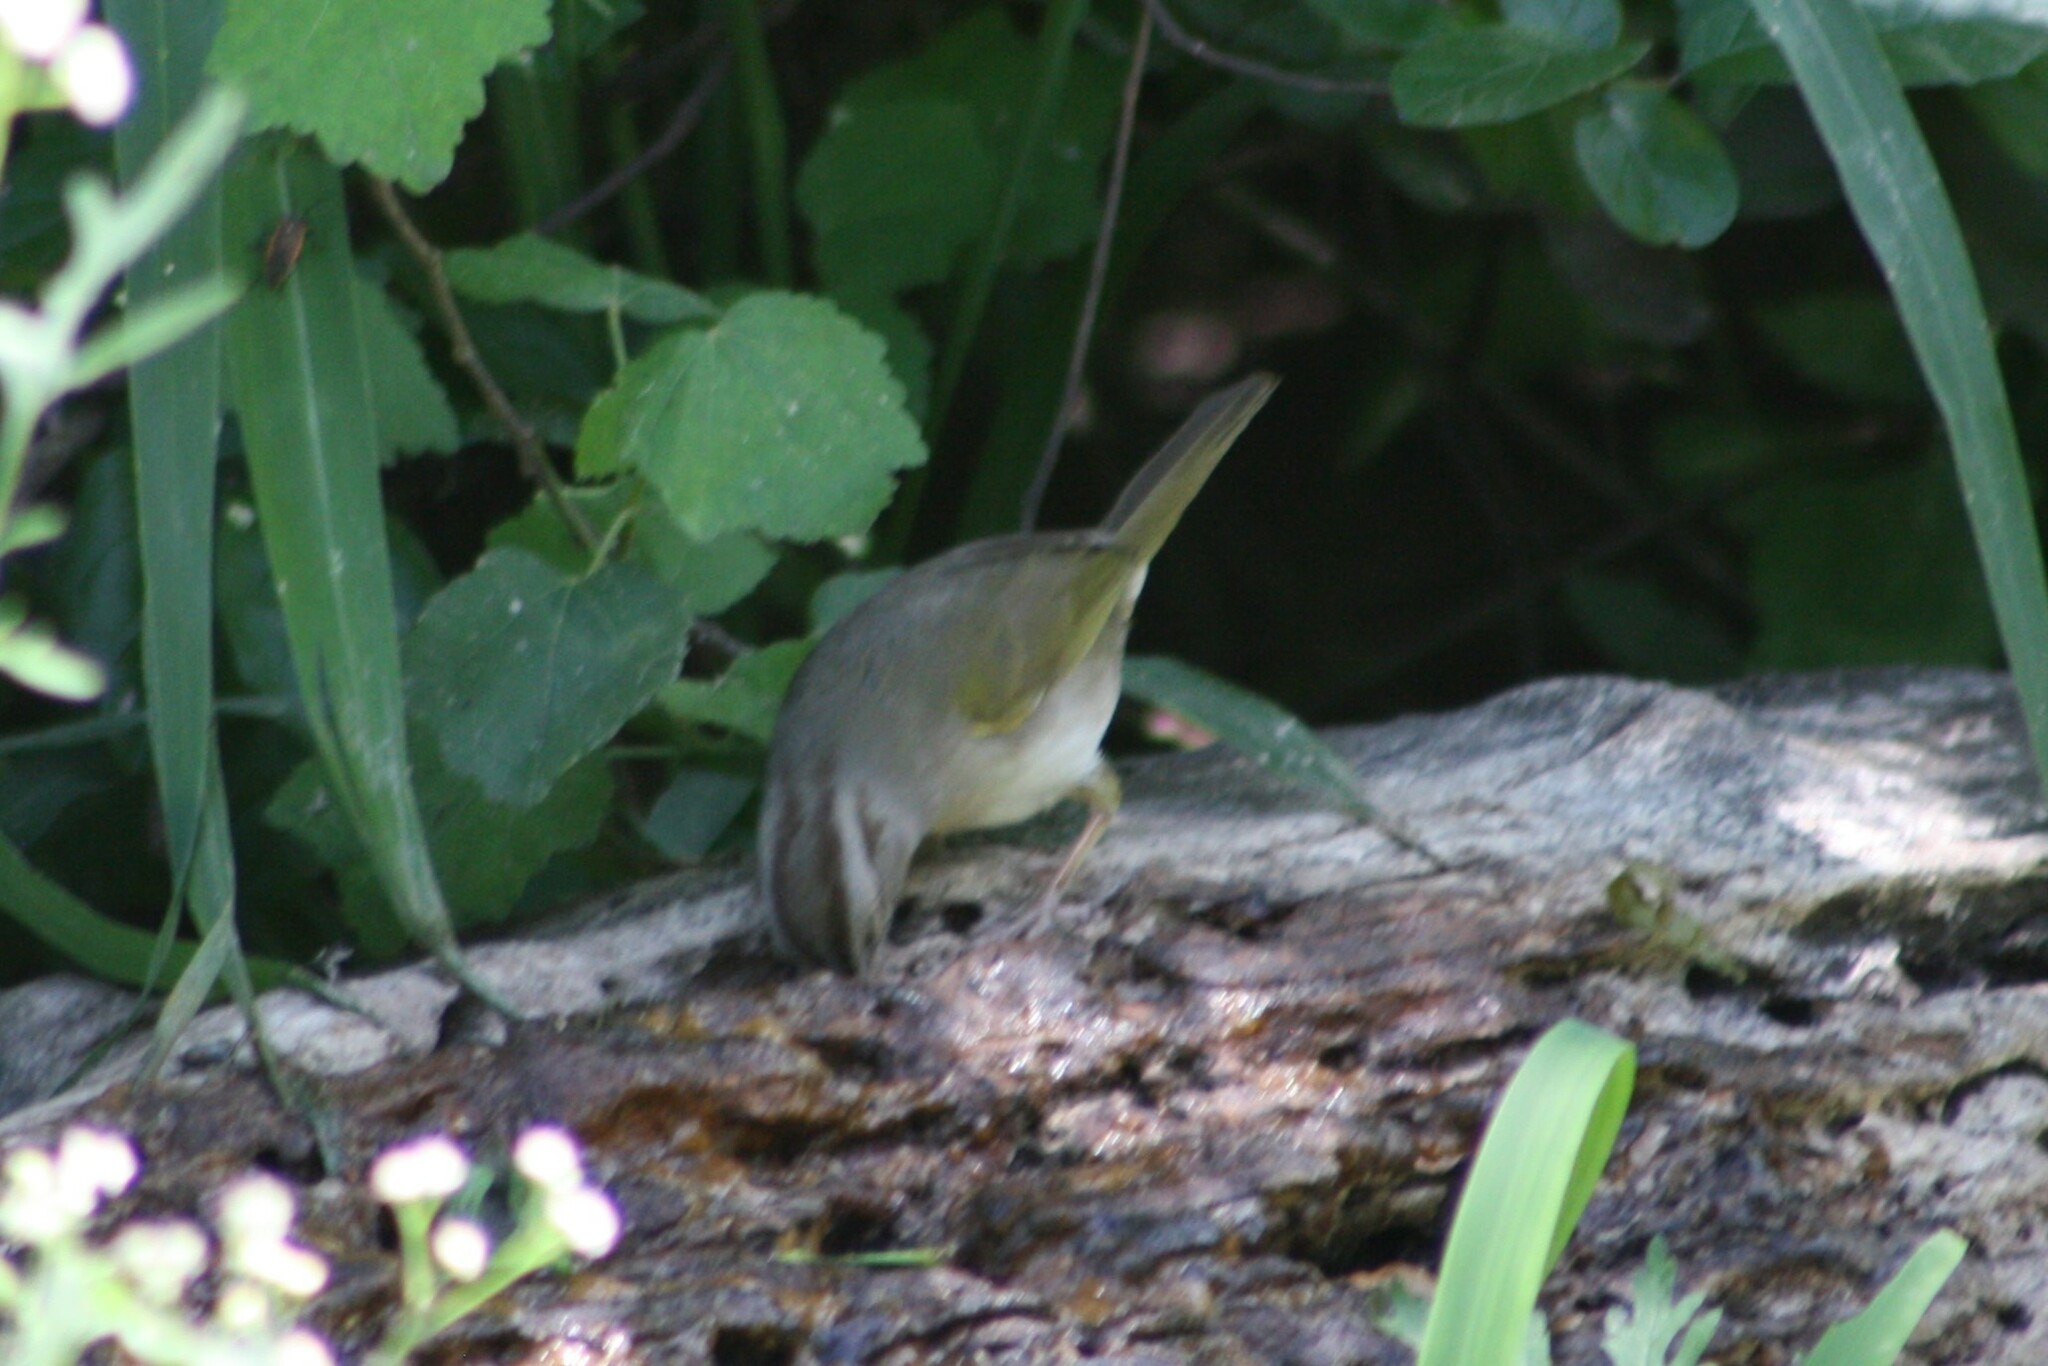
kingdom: Animalia
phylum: Chordata
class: Aves
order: Passeriformes
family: Passerellidae
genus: Arremonops
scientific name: Arremonops rufivirgatus
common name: Olive sparrow
